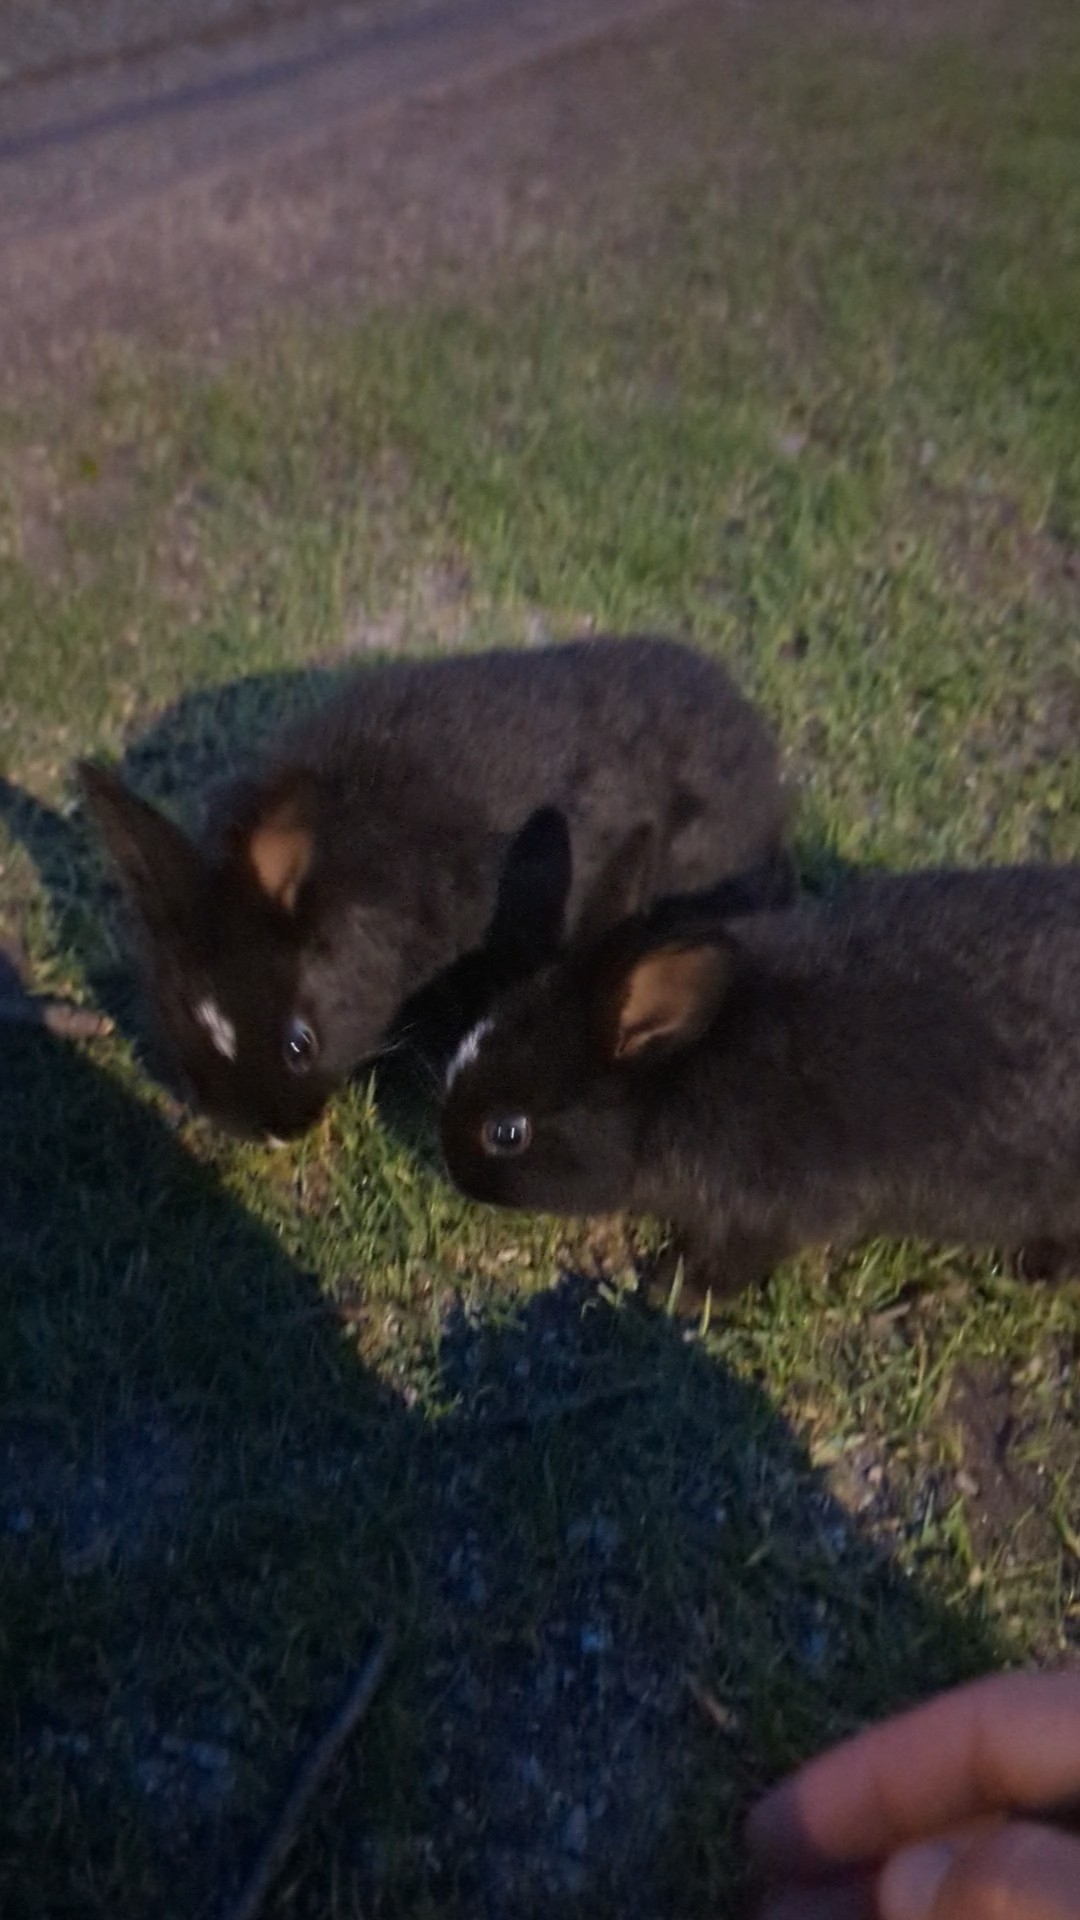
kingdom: Animalia
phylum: Chordata
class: Mammalia
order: Lagomorpha
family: Leporidae
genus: Oryctolagus
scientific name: Oryctolagus cuniculus
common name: European rabbit
